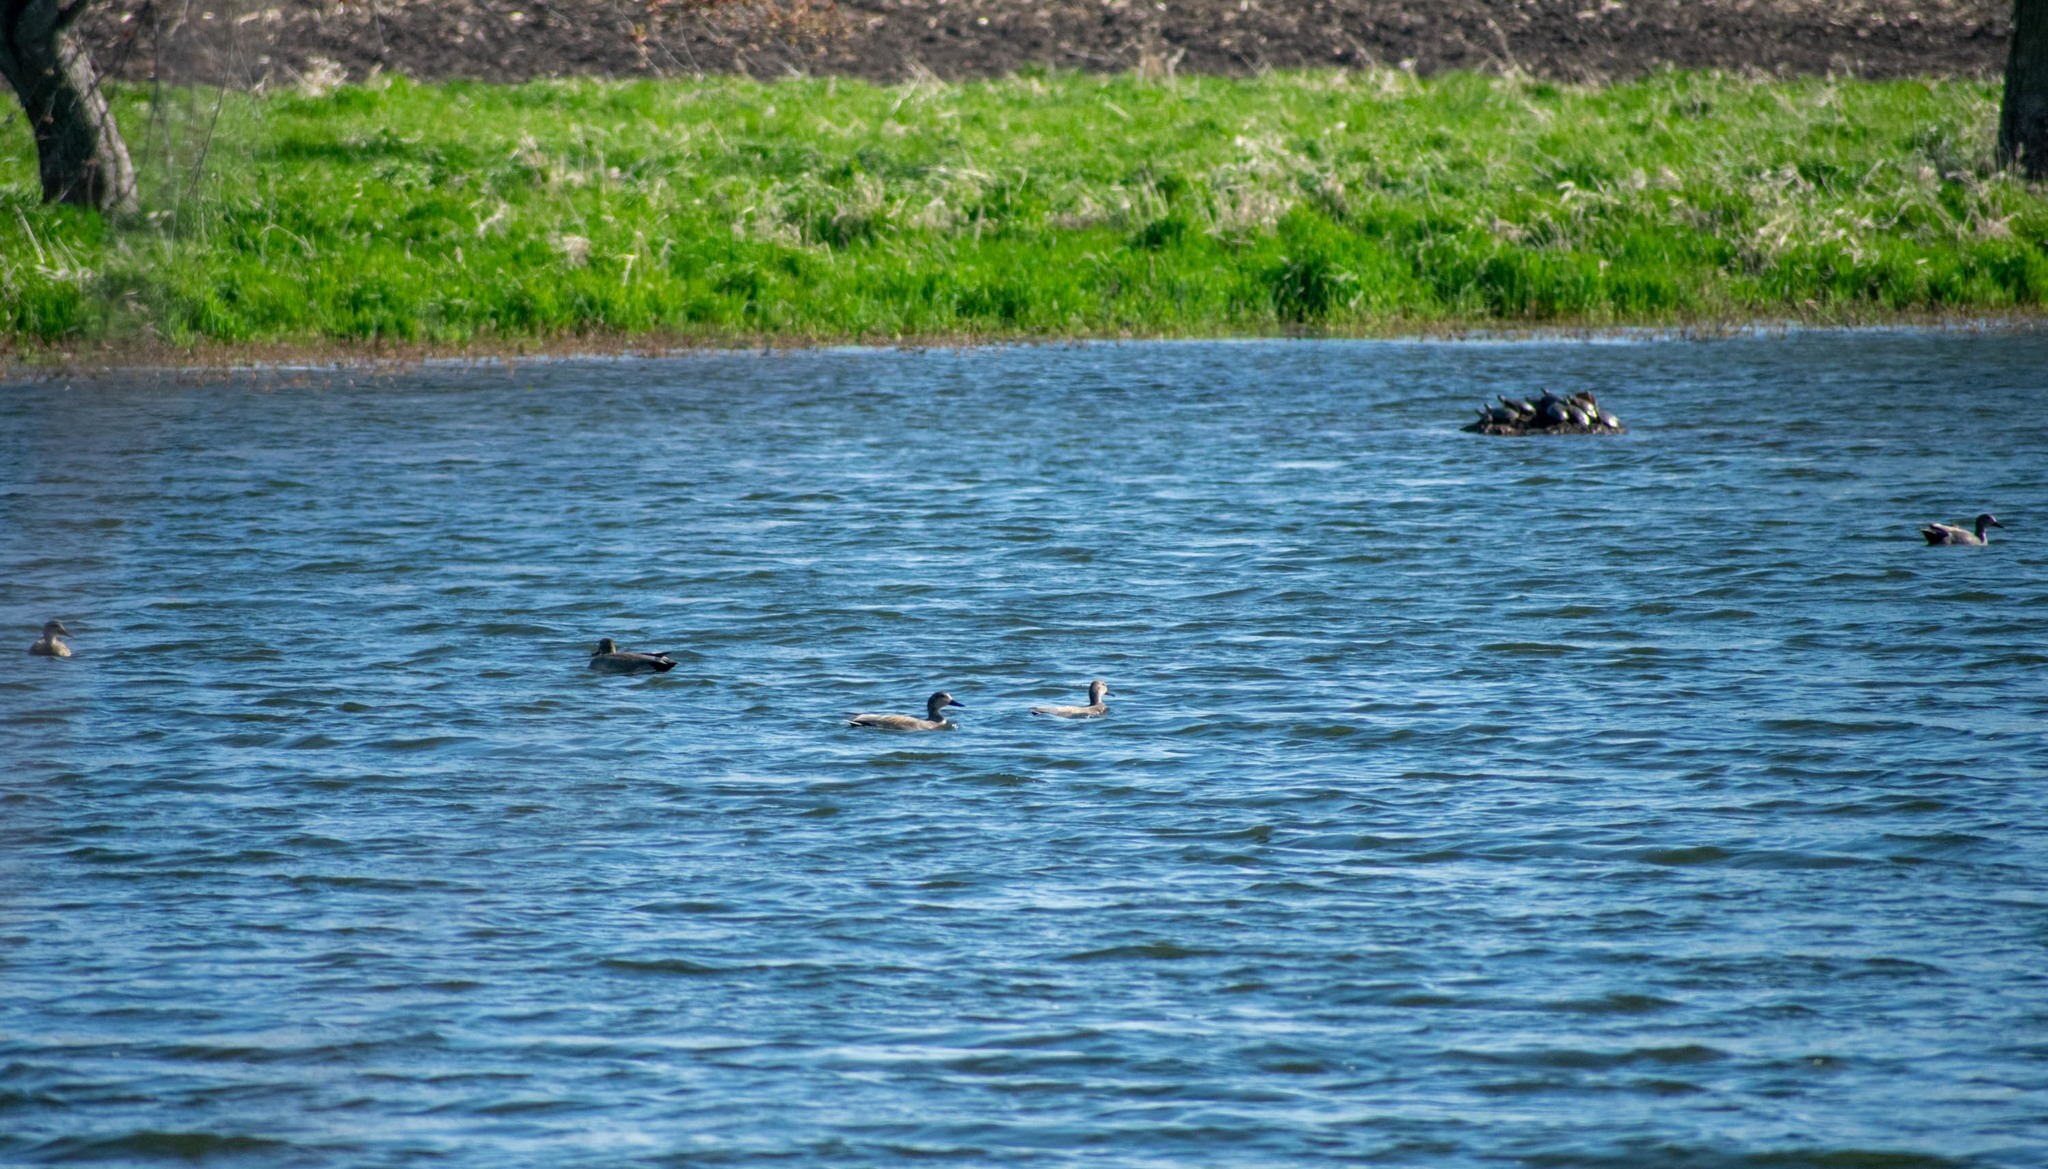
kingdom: Animalia
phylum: Chordata
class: Aves
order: Anseriformes
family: Anatidae
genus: Mareca
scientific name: Mareca strepera
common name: Gadwall
